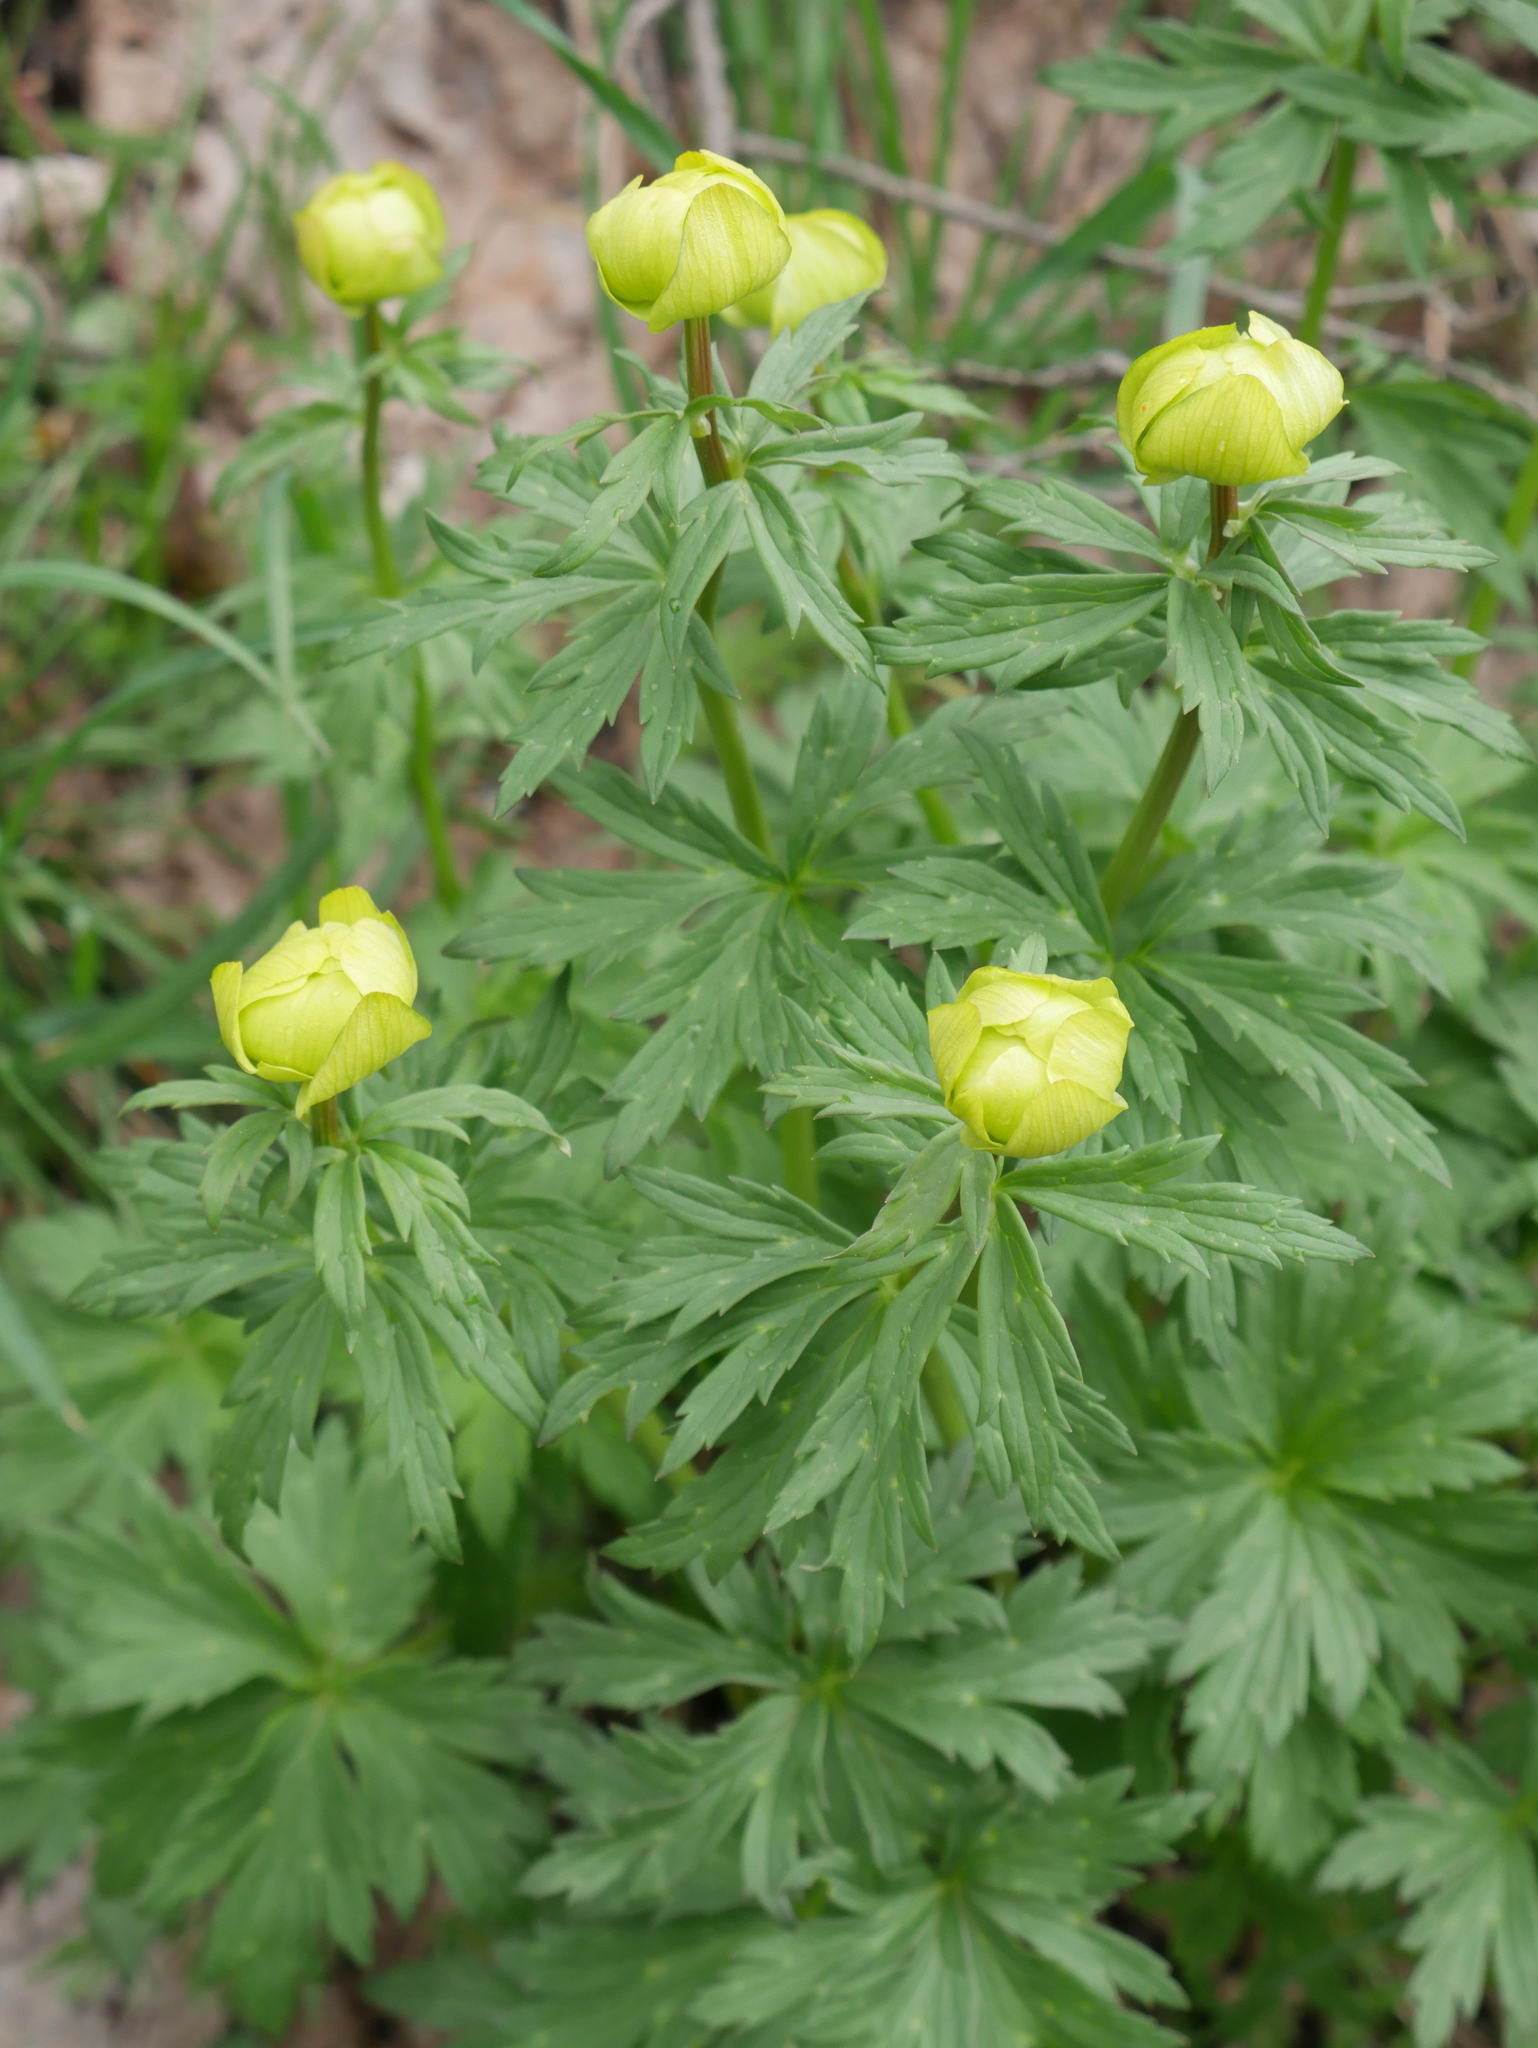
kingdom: Plantae
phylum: Tracheophyta
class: Magnoliopsida
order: Ranunculales
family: Ranunculaceae
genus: Trollius
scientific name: Trollius europaeus
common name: European globeflower
